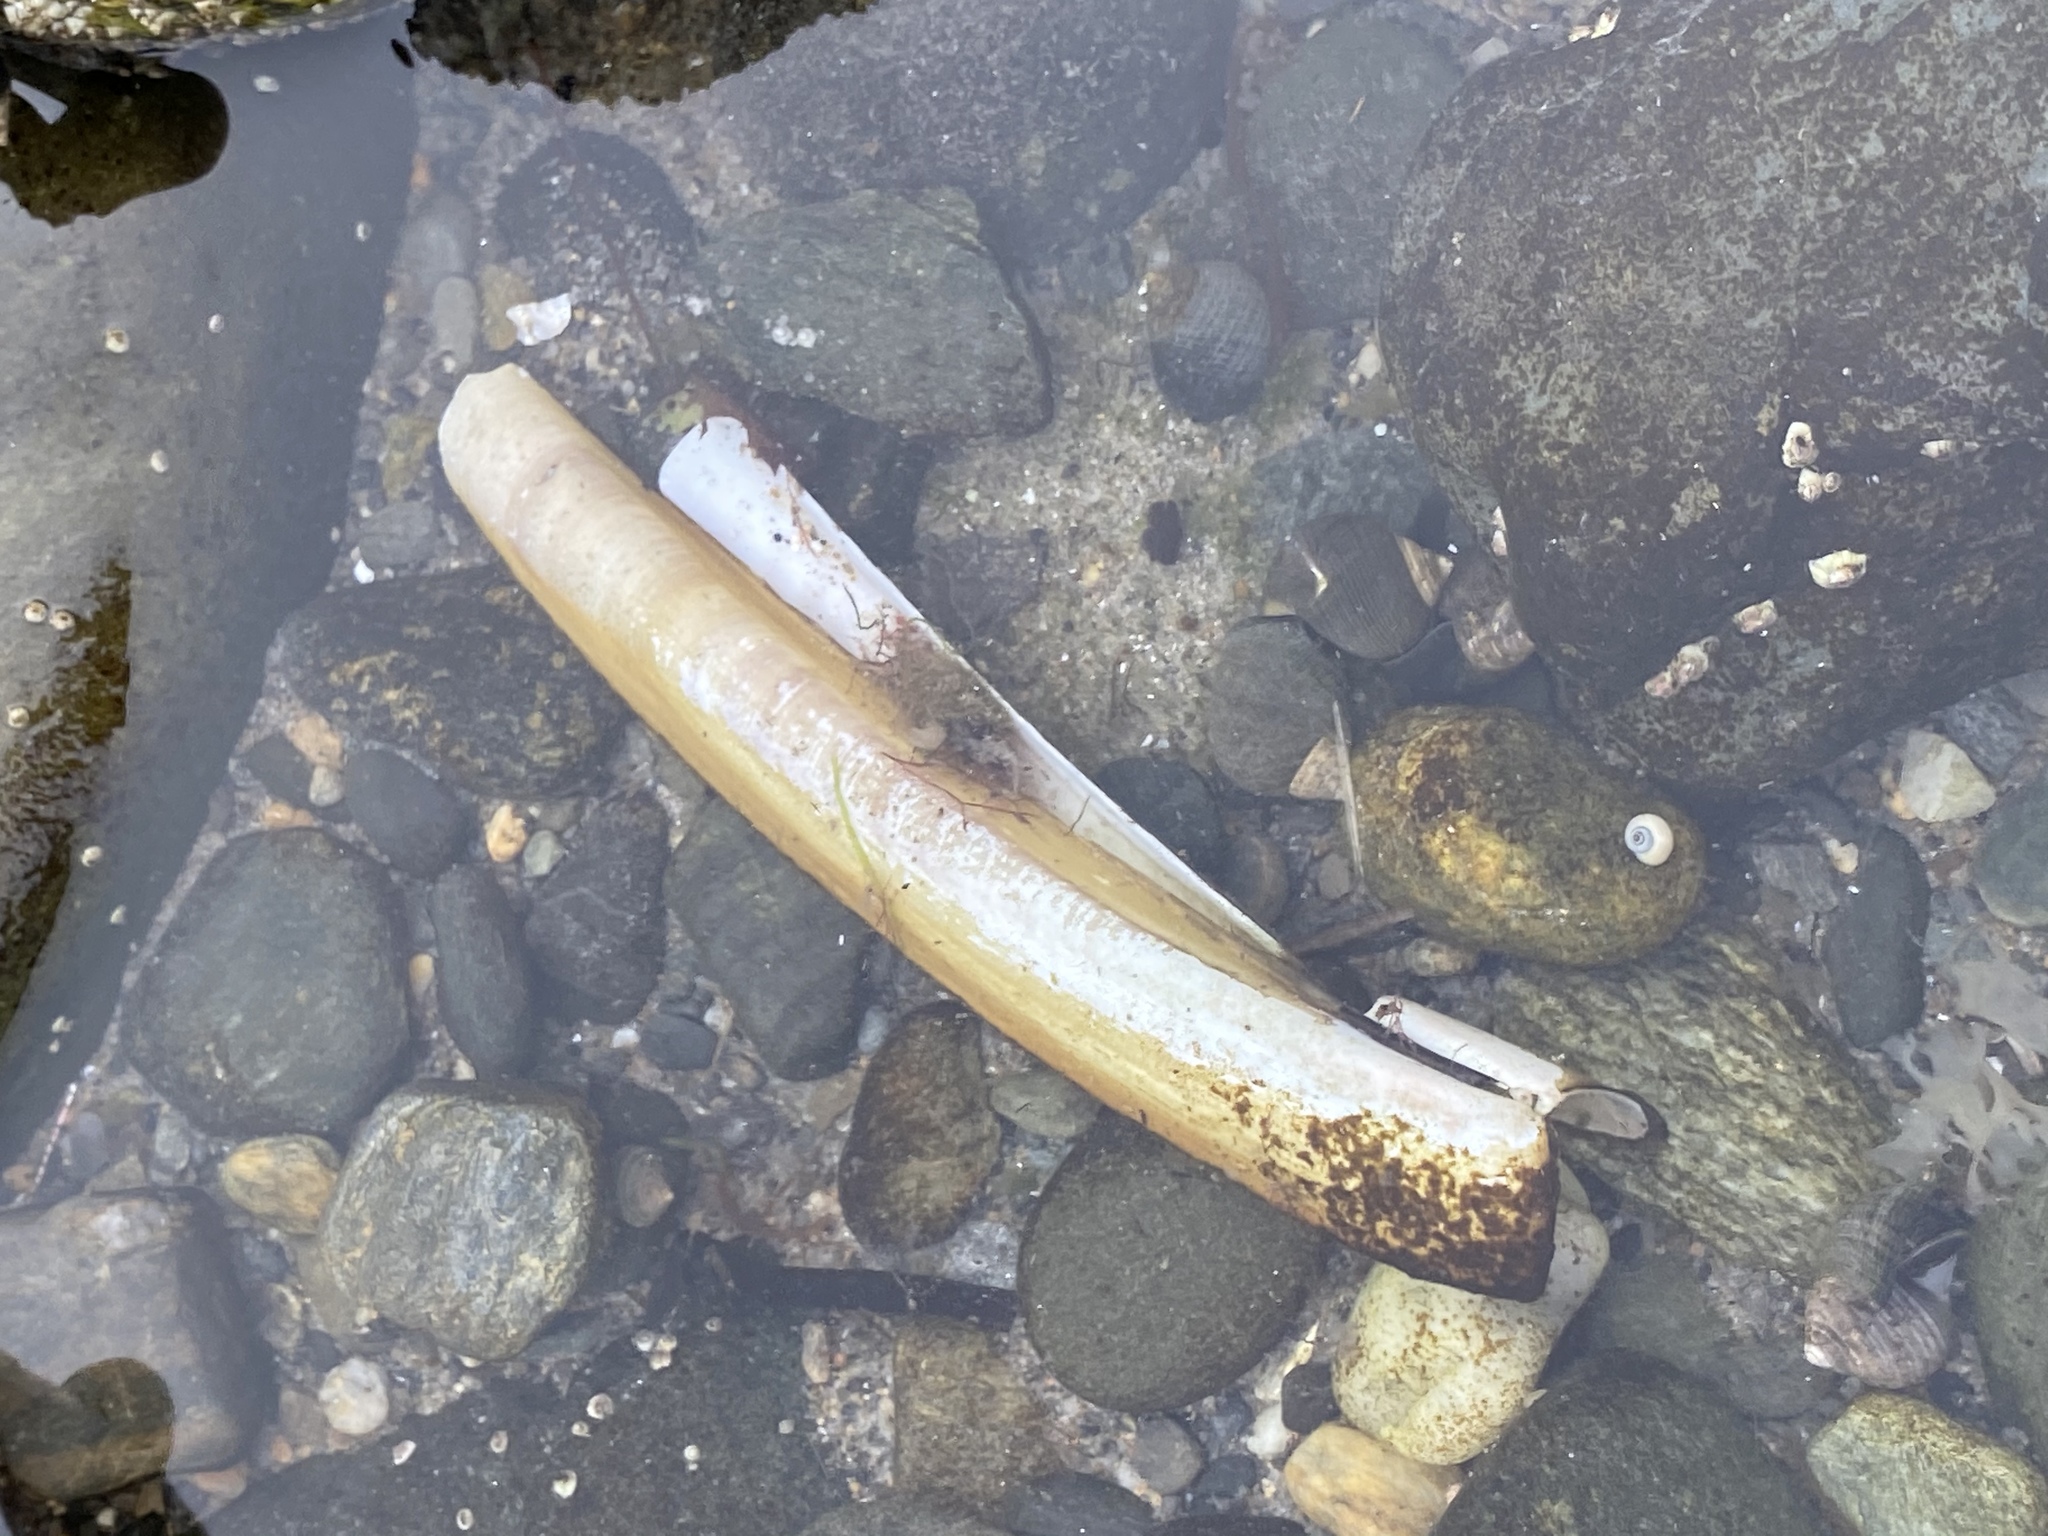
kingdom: Animalia
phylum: Mollusca
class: Bivalvia
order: Adapedonta
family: Pharidae
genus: Ensis
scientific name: Ensis leei
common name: American jack knife clam
